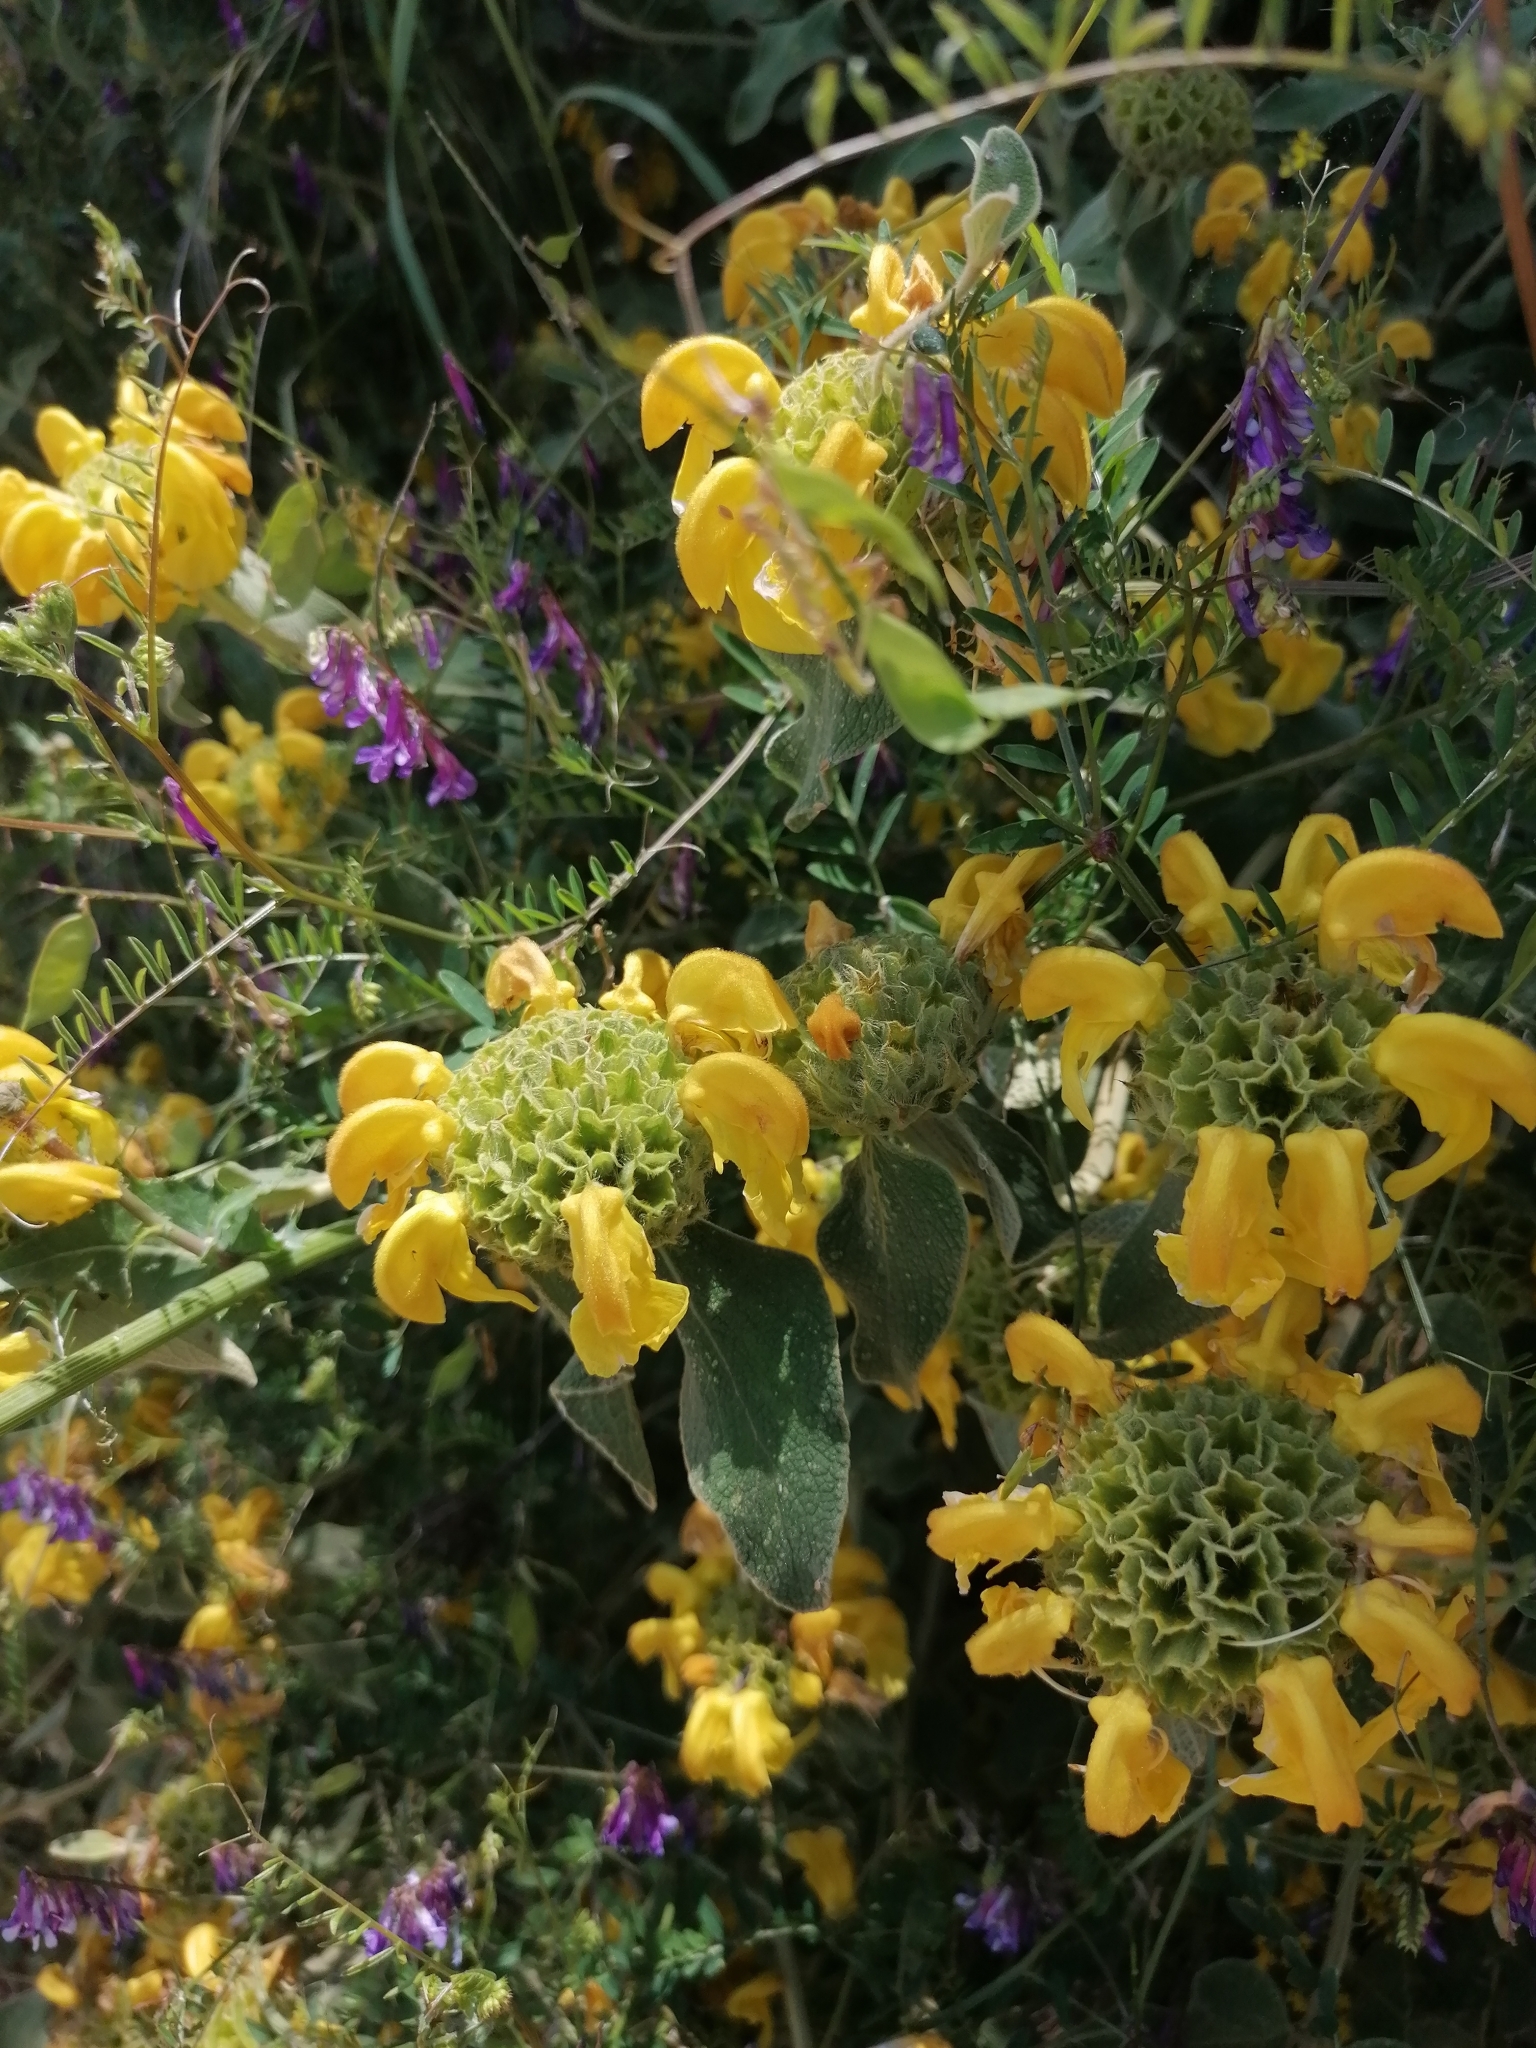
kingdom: Plantae
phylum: Tracheophyta
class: Magnoliopsida
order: Lamiales
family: Lamiaceae
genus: Phlomis
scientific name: Phlomis fruticosa
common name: Jerusalem sage
